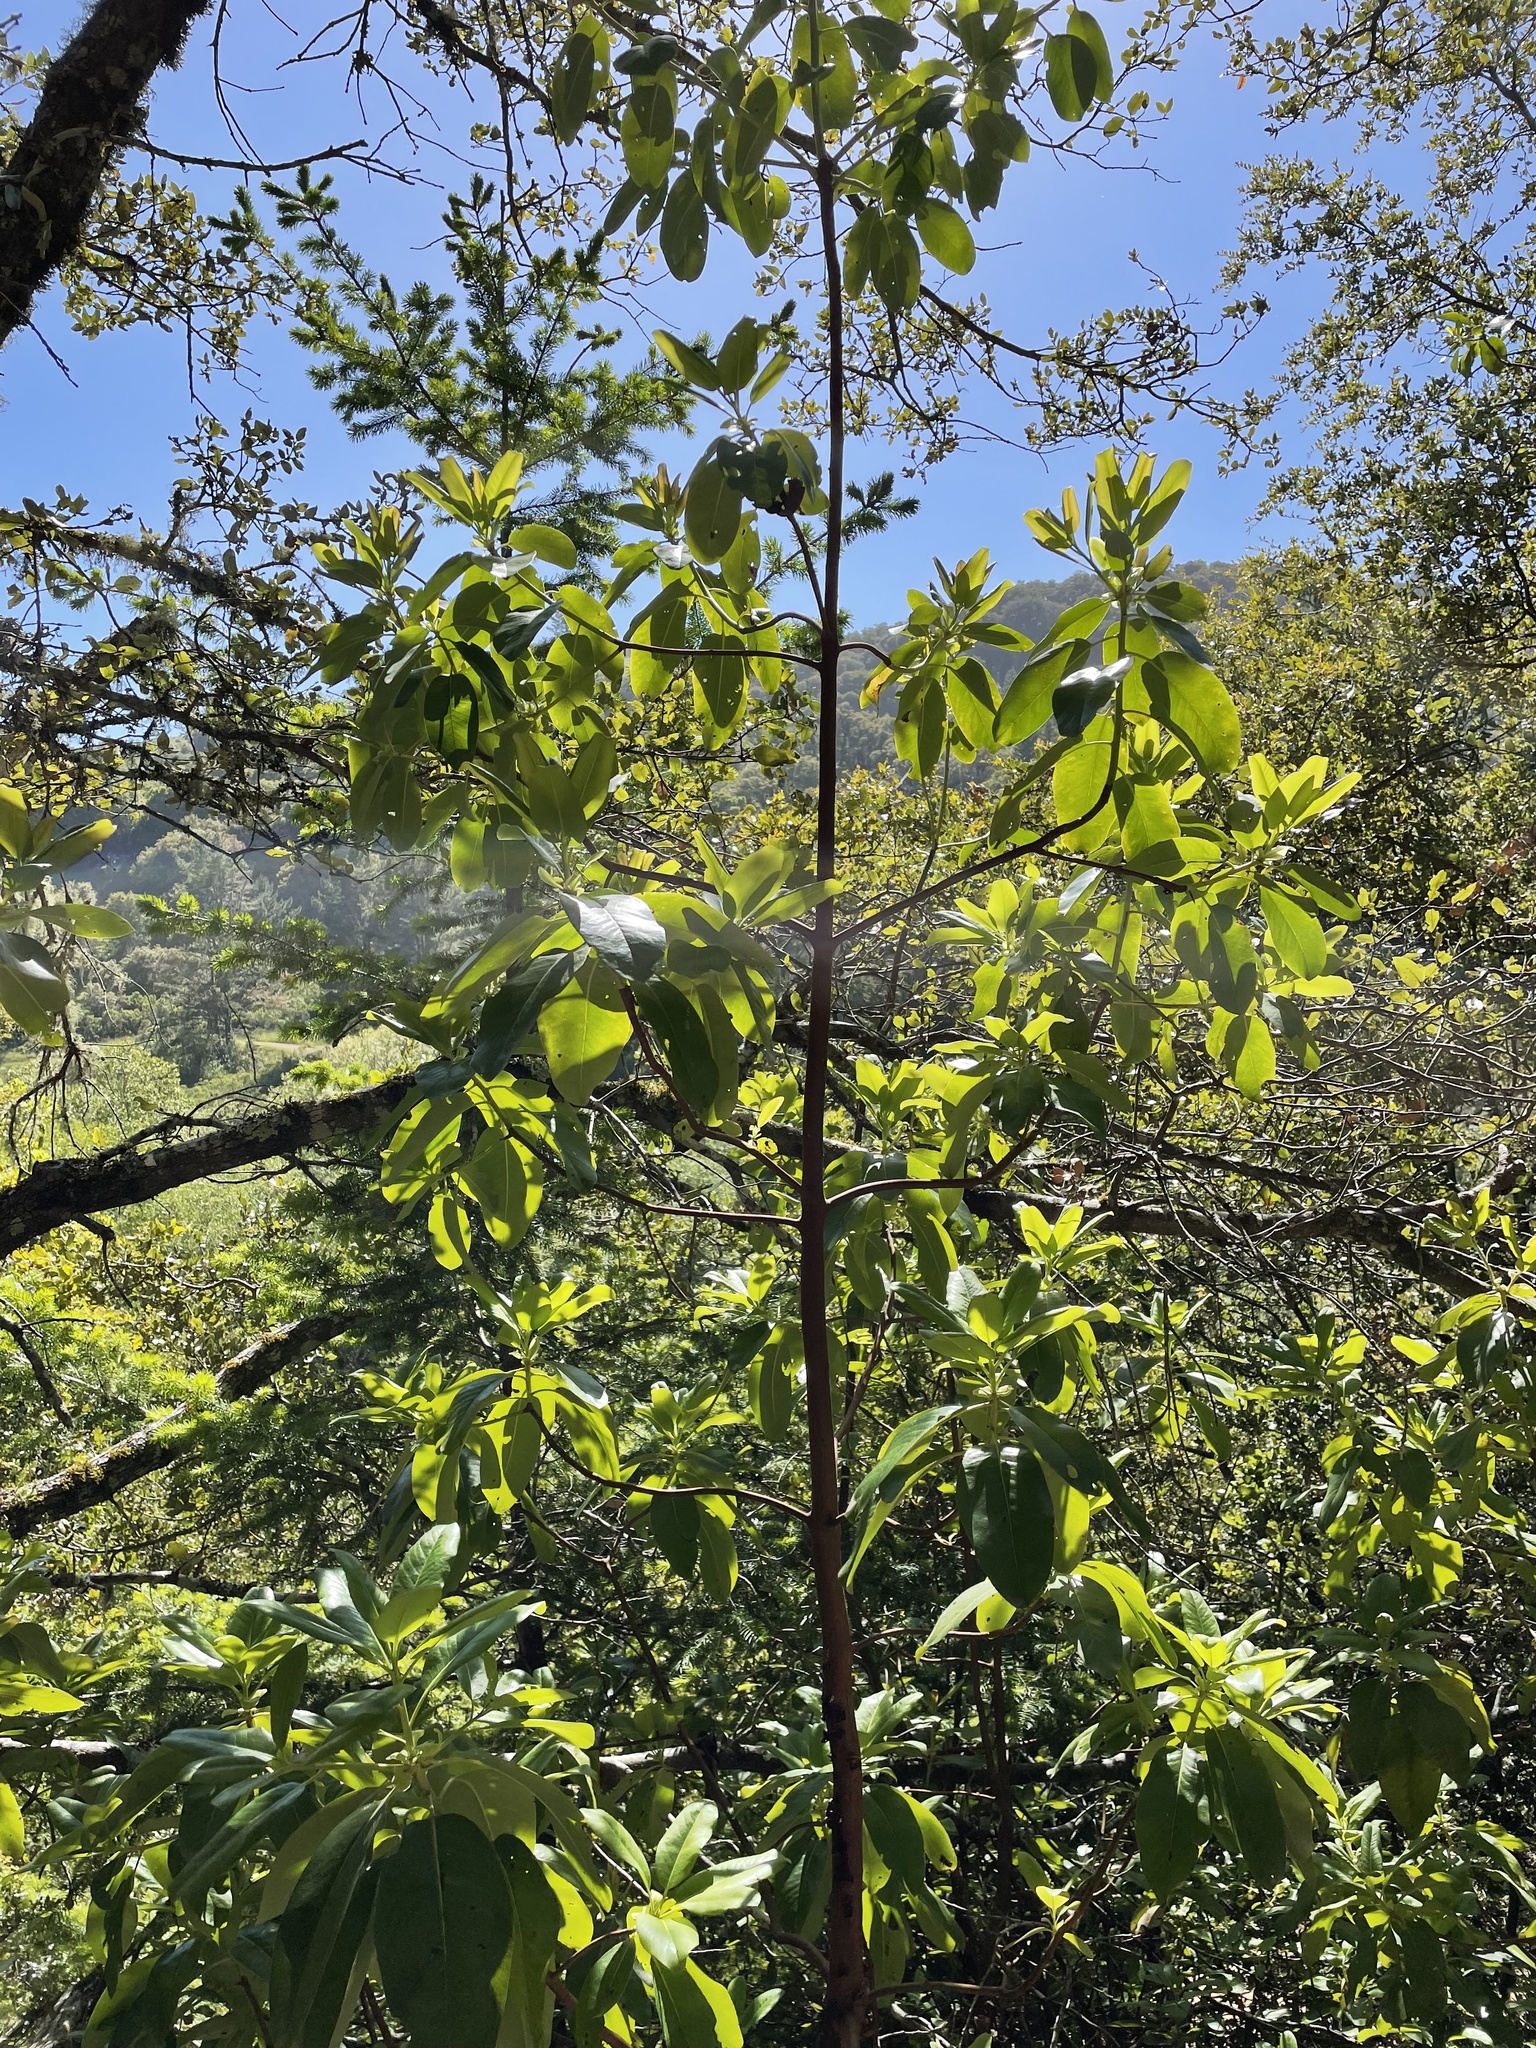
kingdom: Plantae
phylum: Tracheophyta
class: Magnoliopsida
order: Ericales
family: Ericaceae
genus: Arbutus
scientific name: Arbutus menziesii
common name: Pacific madrone
